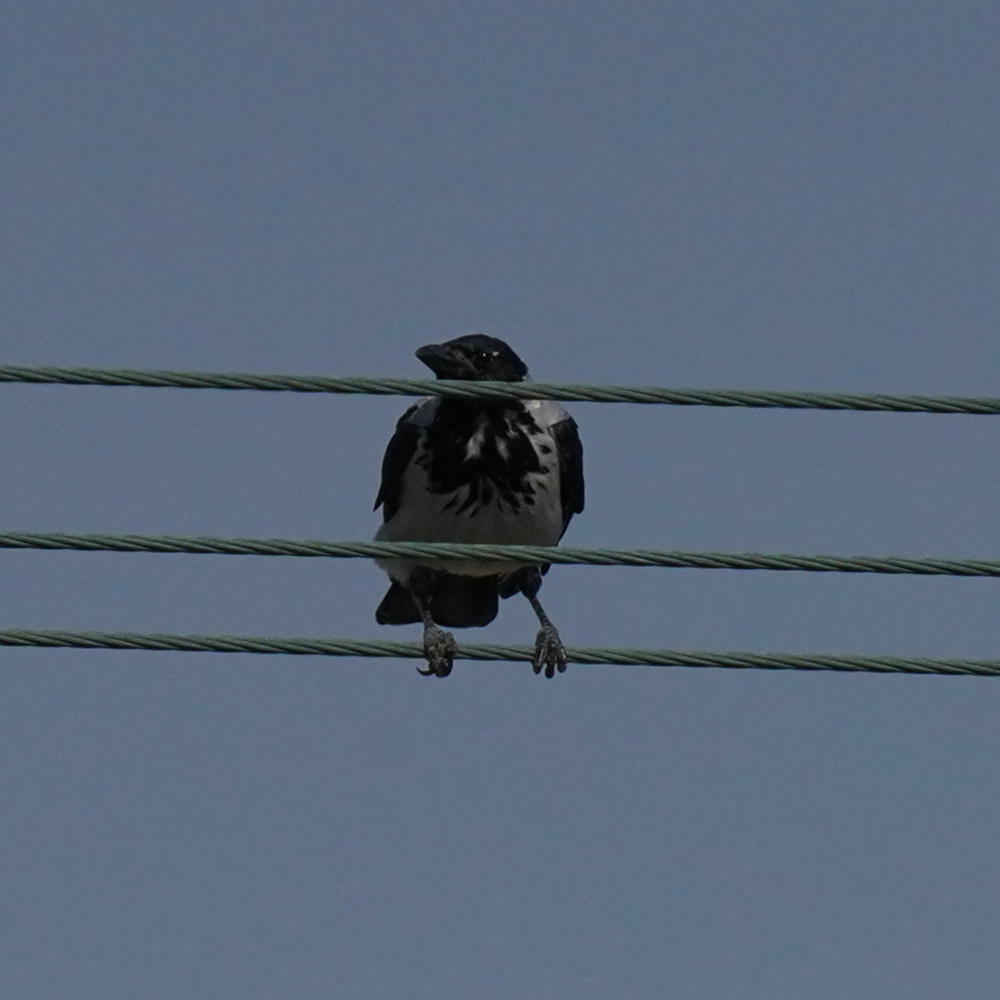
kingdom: Animalia
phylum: Chordata
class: Aves
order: Passeriformes
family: Corvidae
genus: Corvus
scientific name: Corvus cornix
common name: Hooded crow
